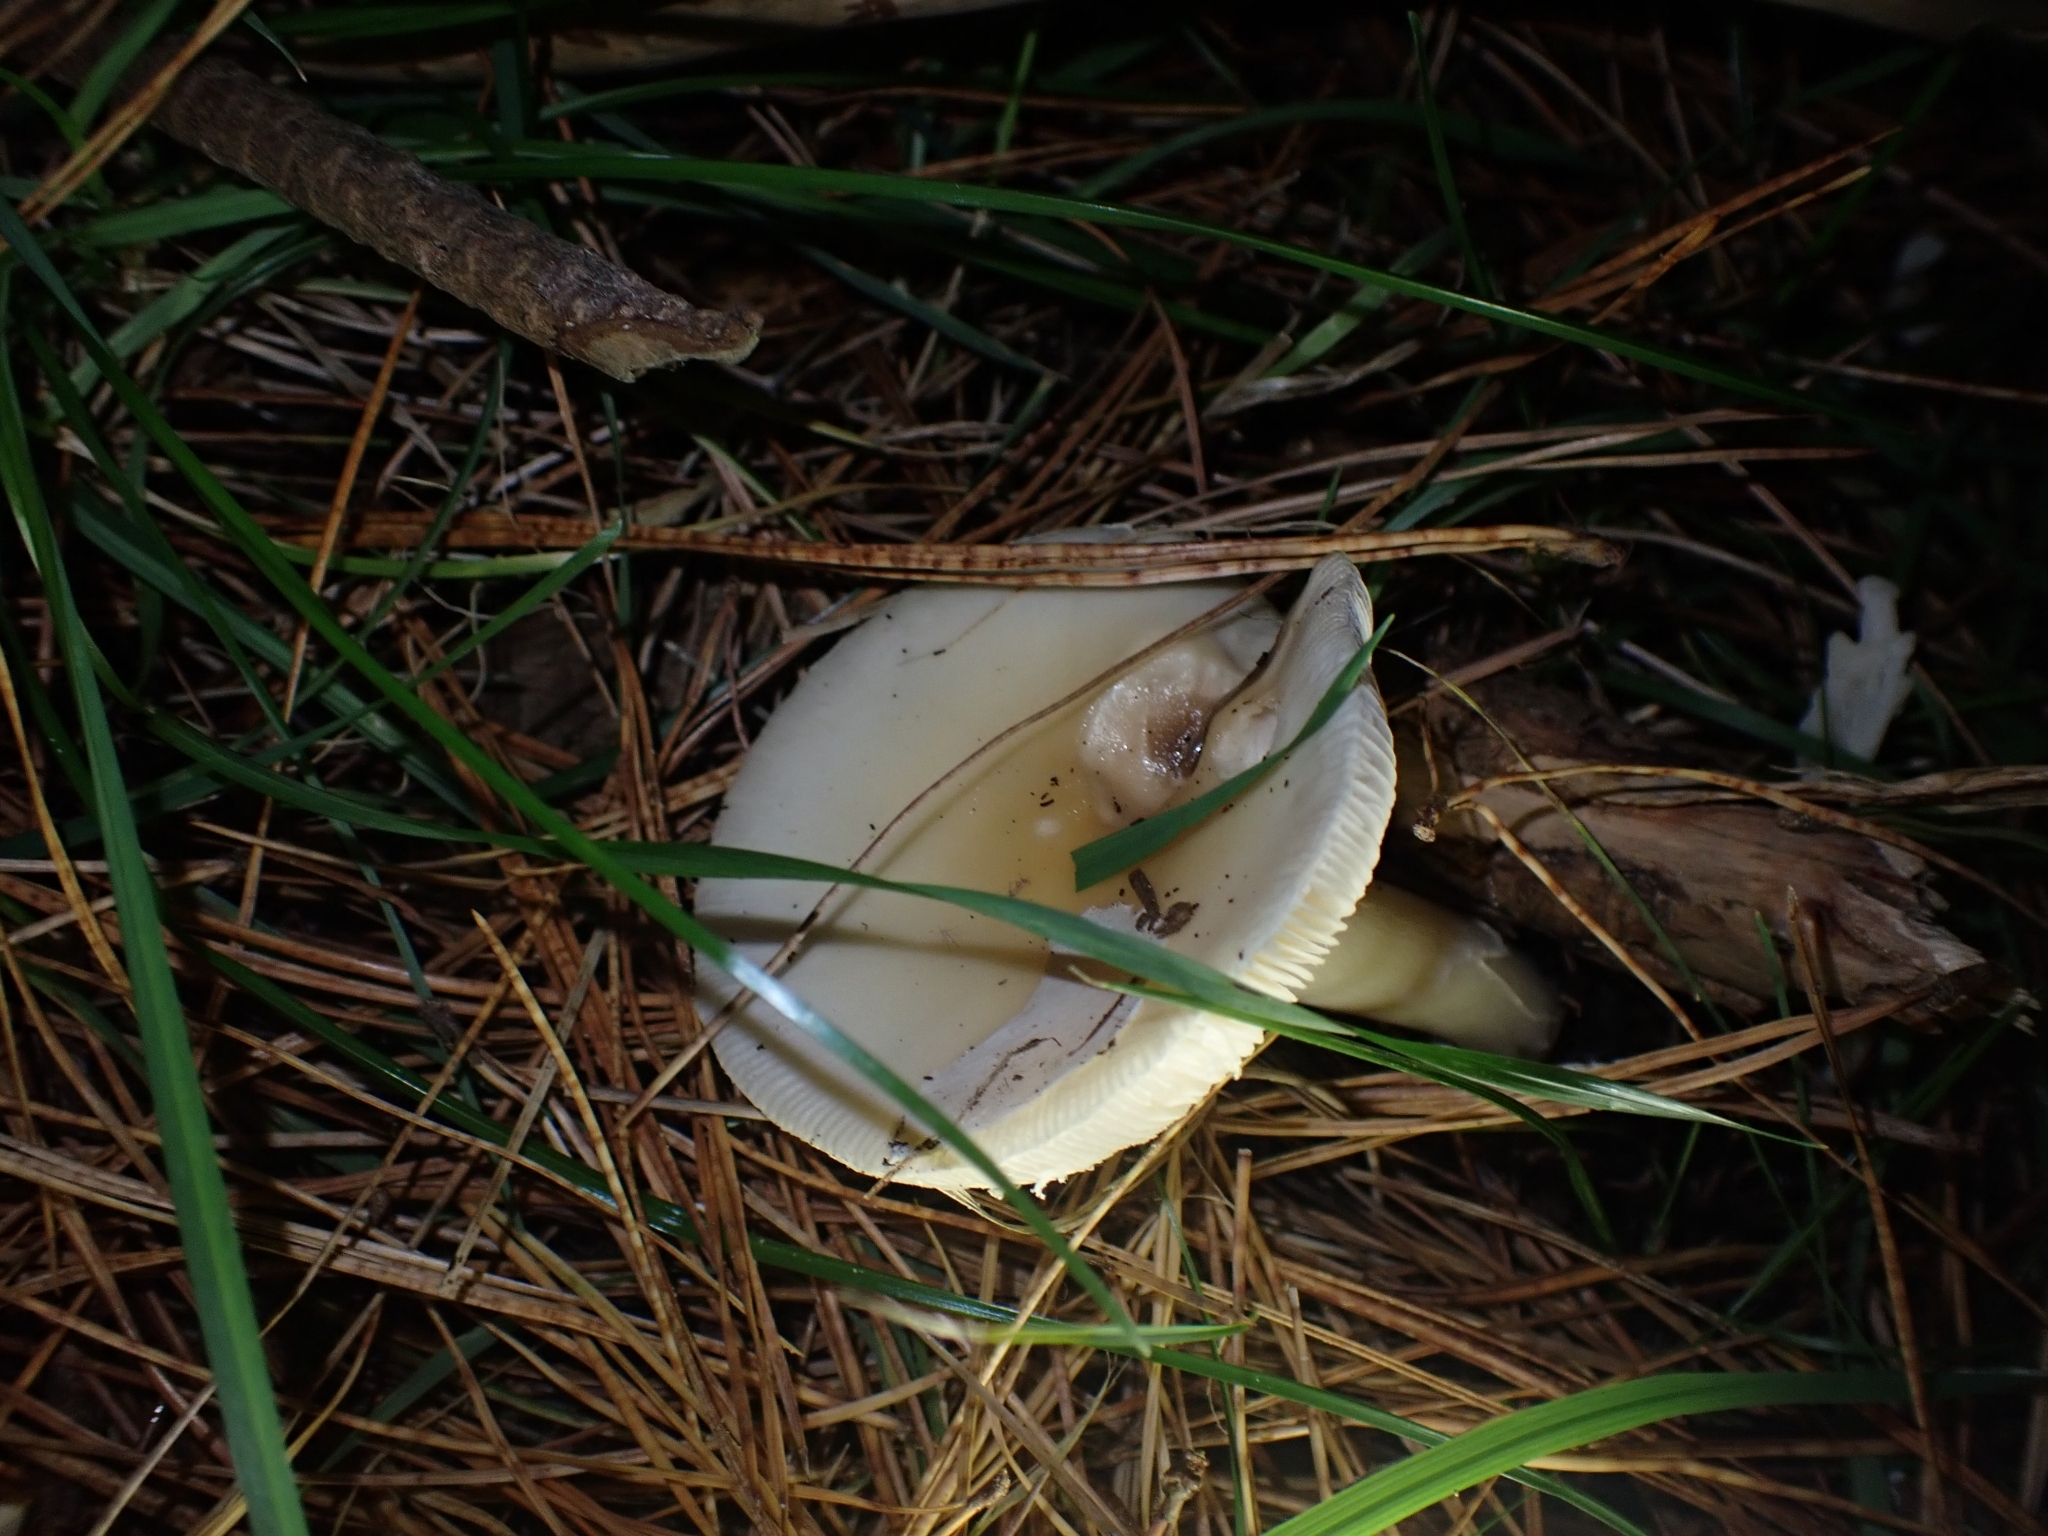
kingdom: Fungi
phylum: Basidiomycota
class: Agaricomycetes
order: Agaricales
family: Amanitaceae
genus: Amanita
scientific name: Amanita gemmata
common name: Jewelled amanita
